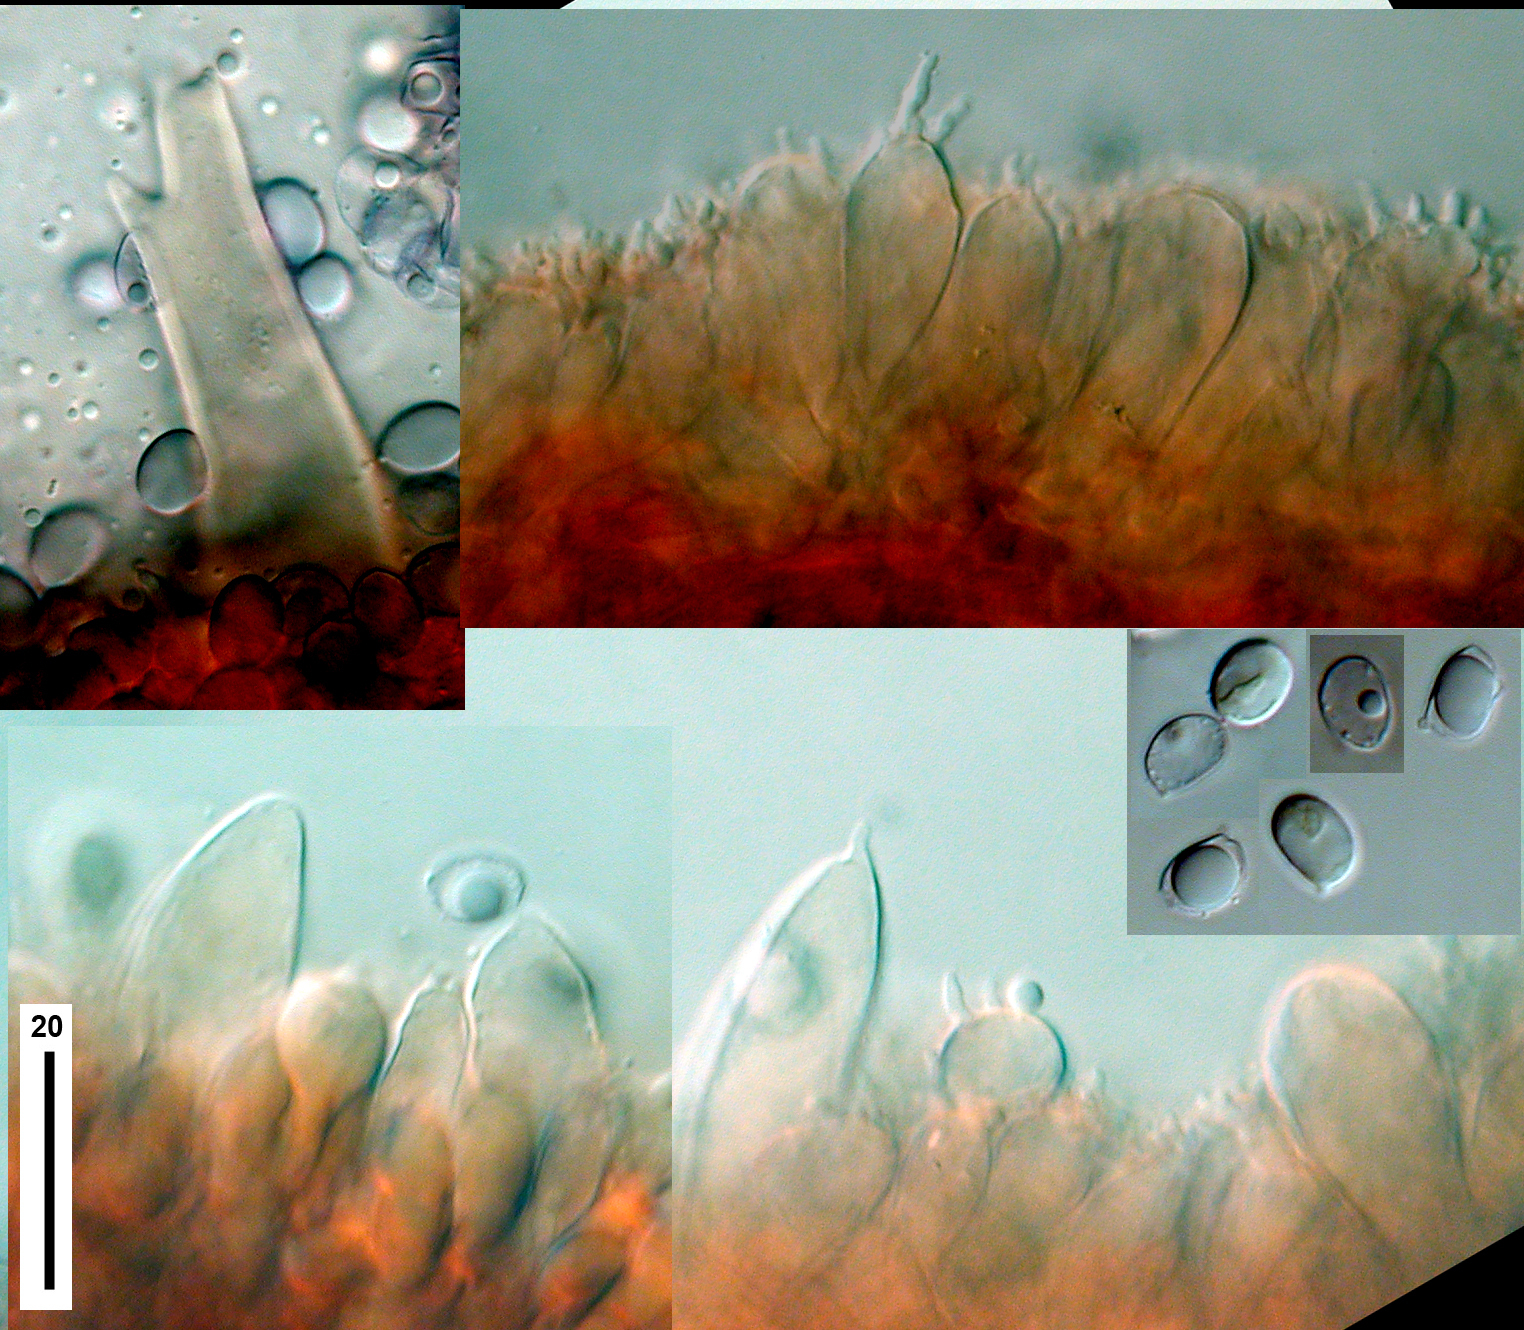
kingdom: Fungi
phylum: Basidiomycota
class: Agaricomycetes
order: Agaricales
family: Mycenaceae
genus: Mycena
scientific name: Mycena cystidiosa
